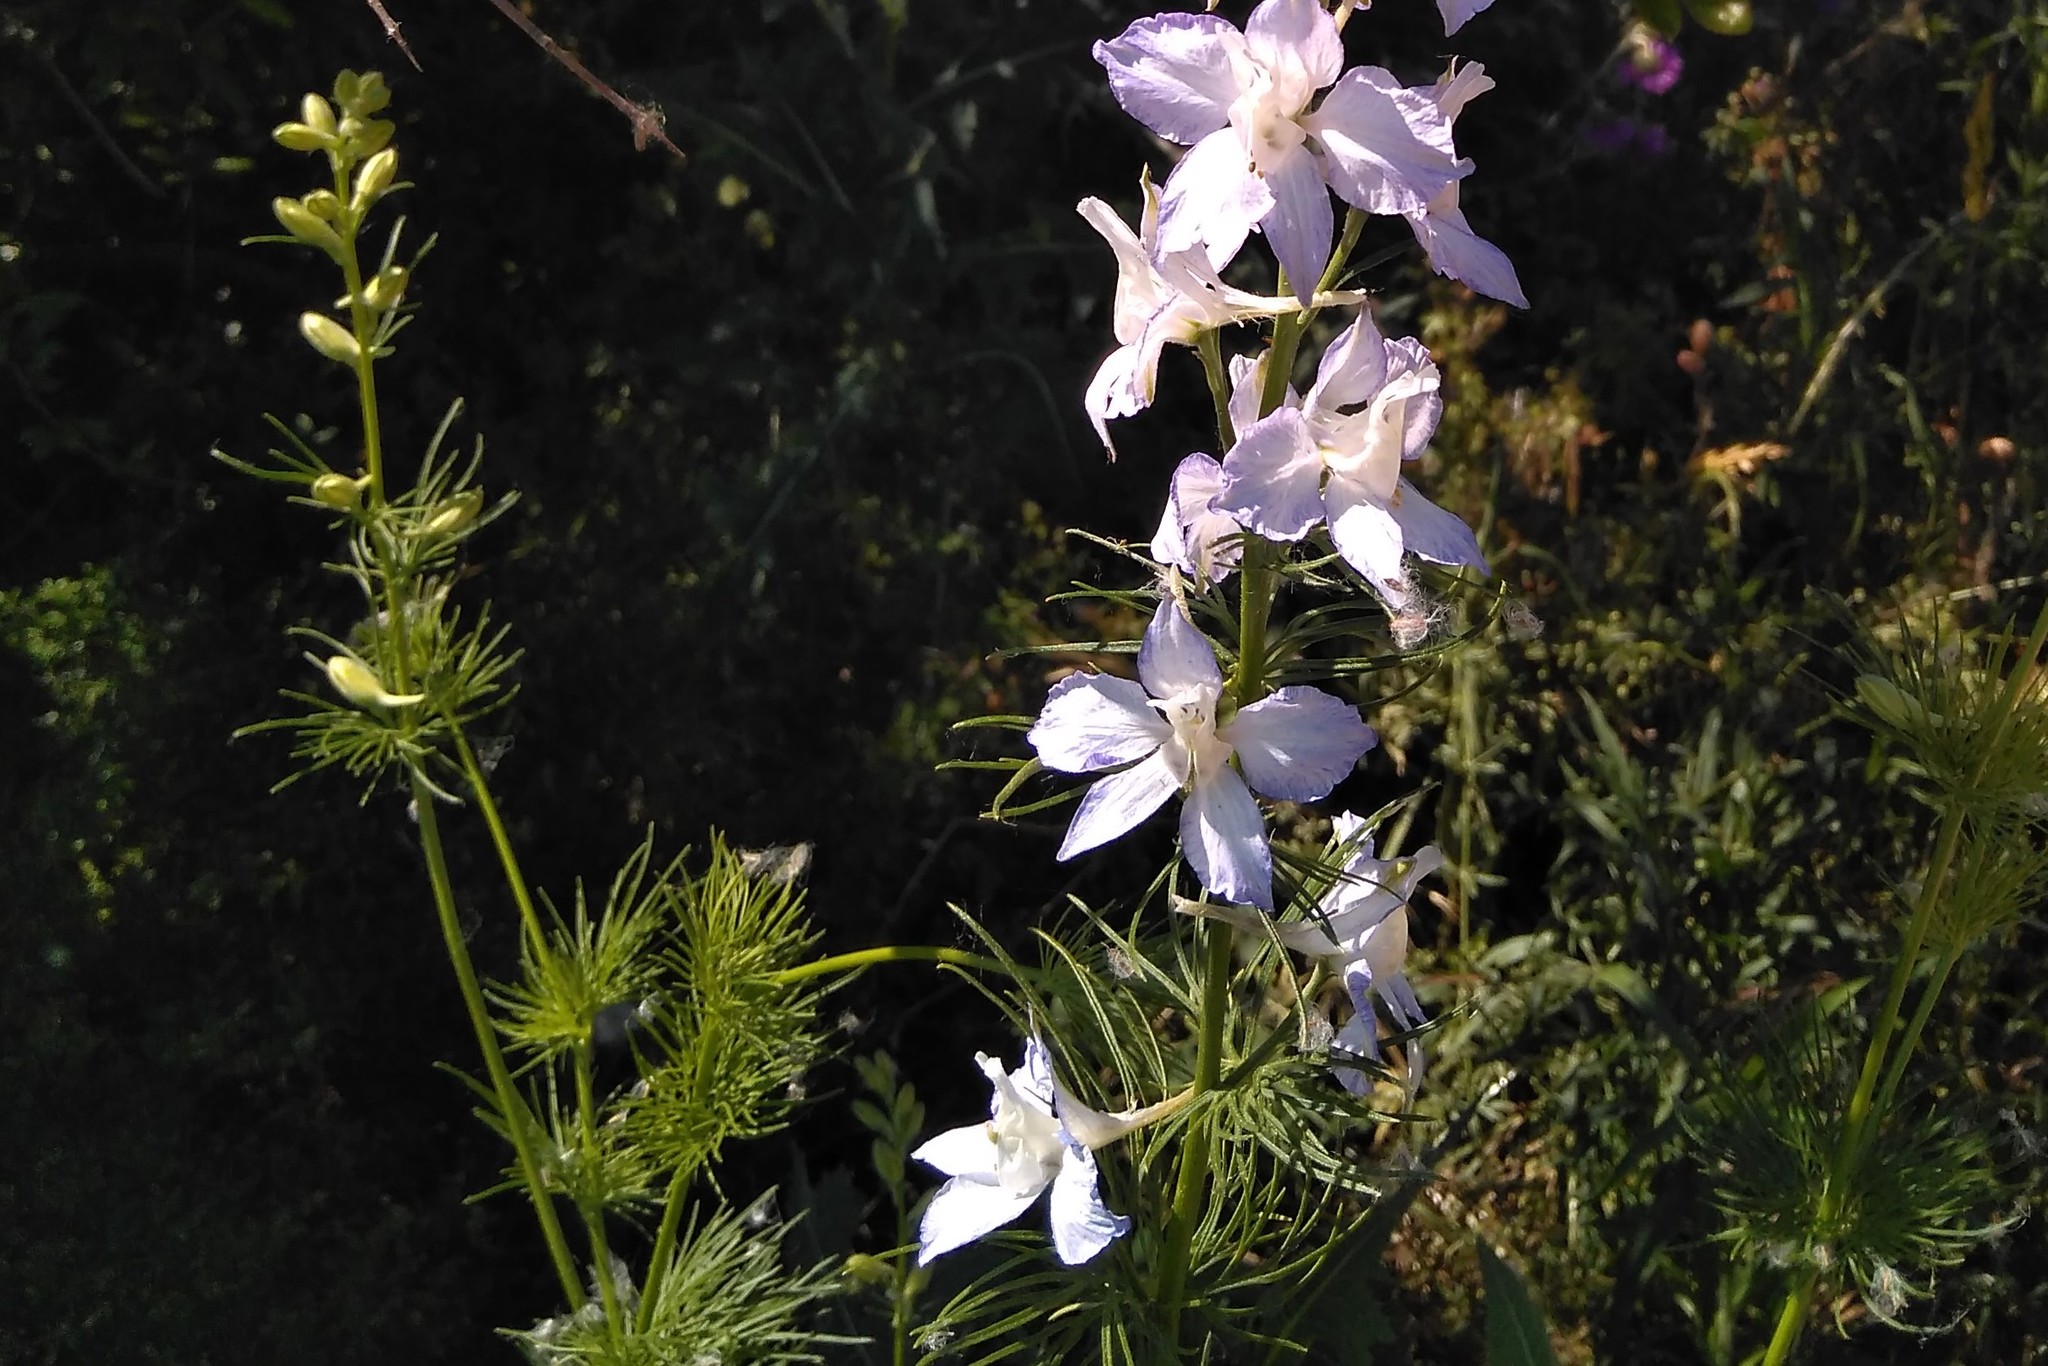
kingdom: Plantae
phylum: Tracheophyta
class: Magnoliopsida
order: Ranunculales
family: Ranunculaceae
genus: Delphinium
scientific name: Delphinium ajacis
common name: Doubtful knight's-spur
